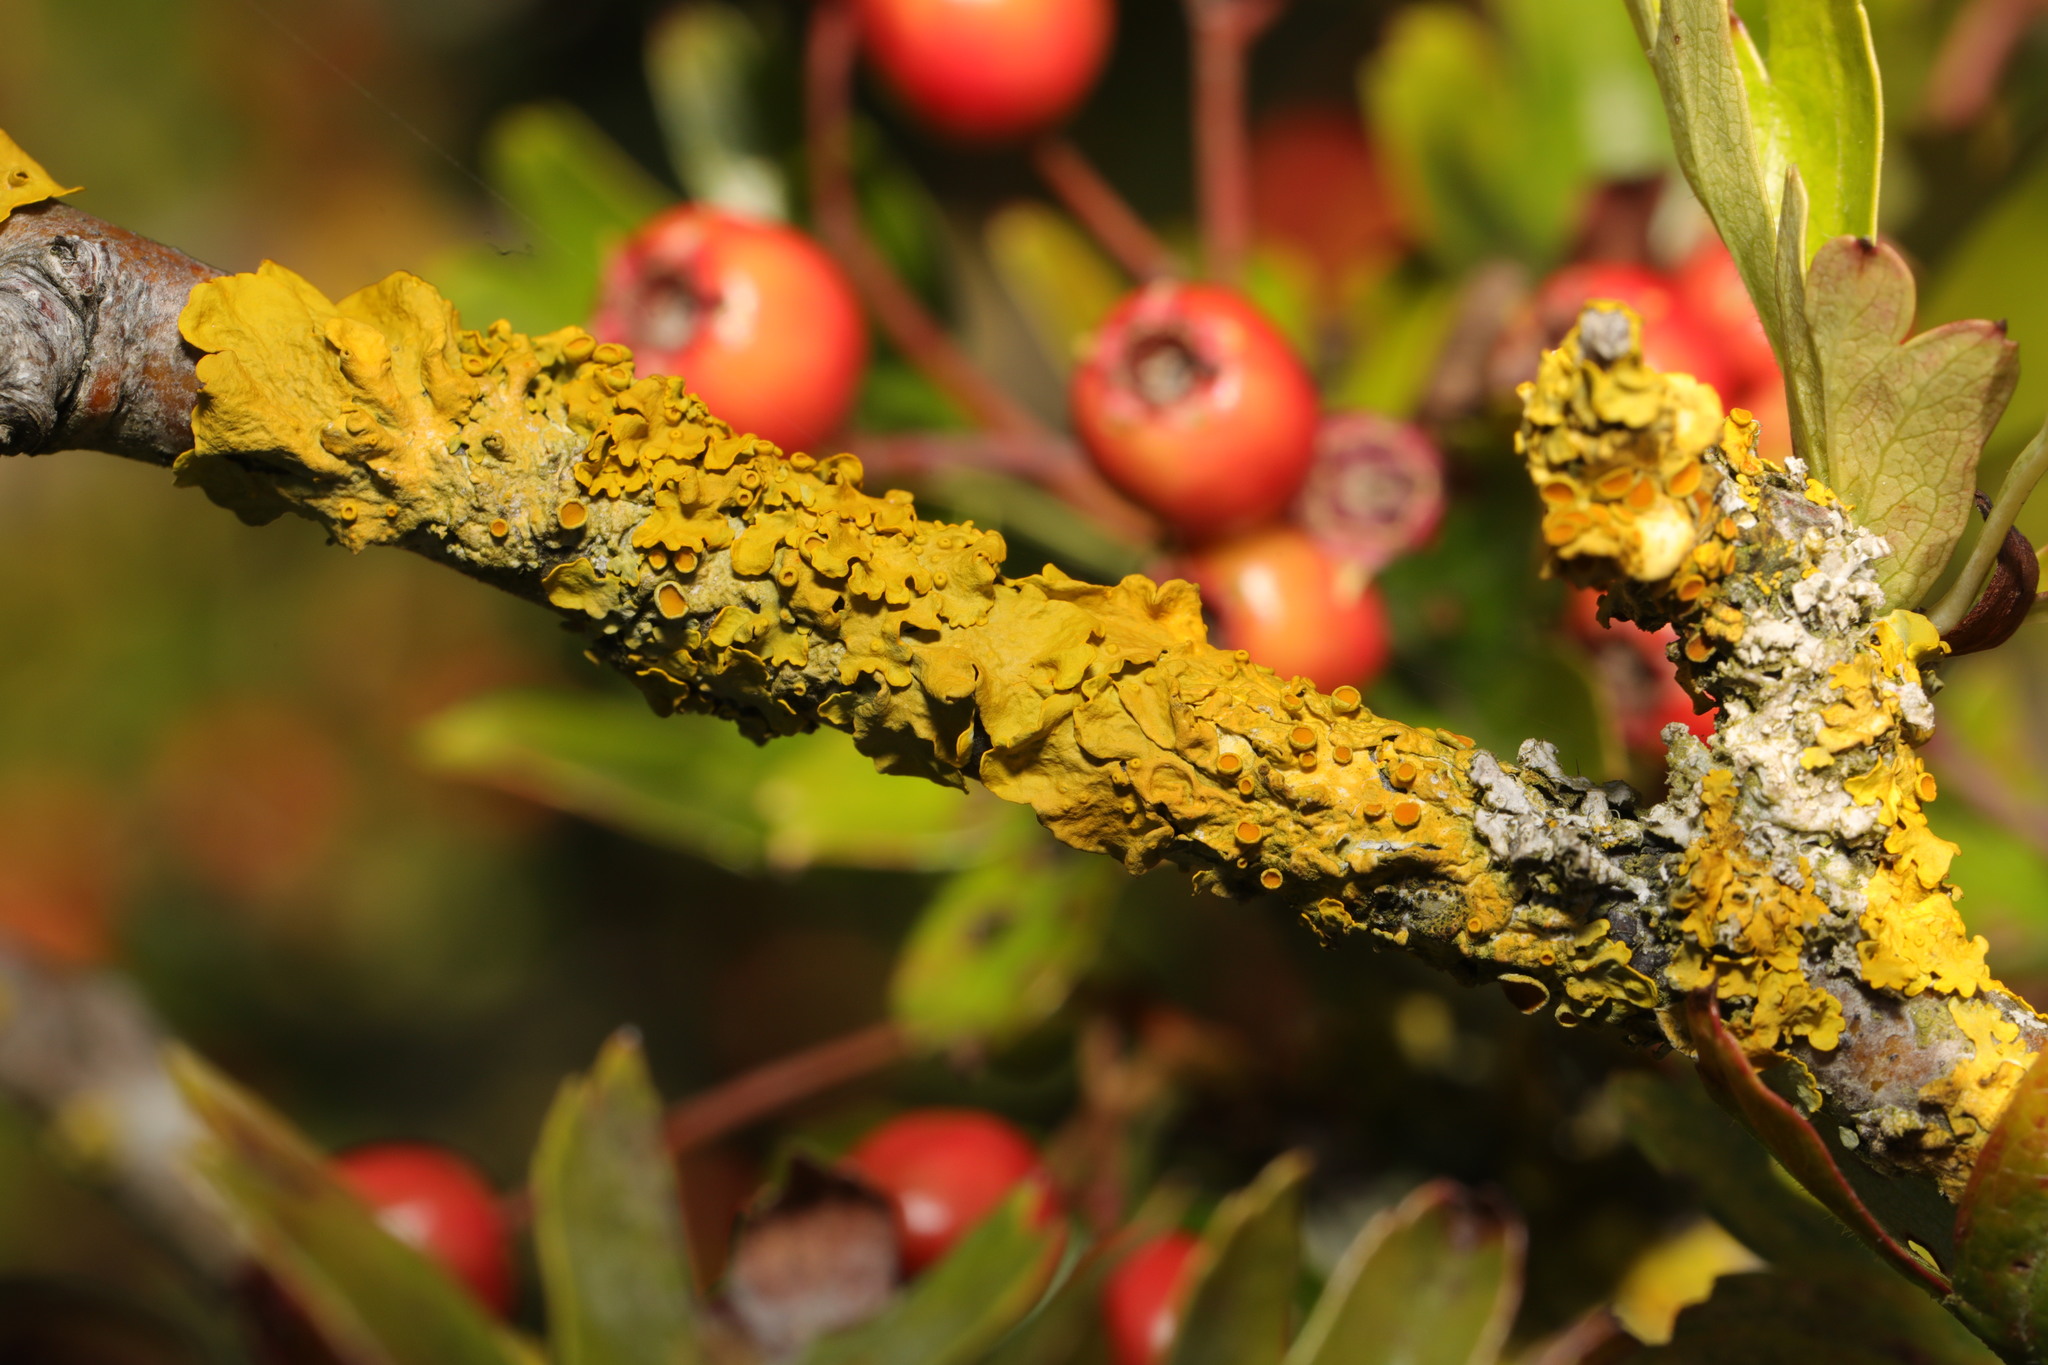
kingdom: Fungi
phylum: Ascomycota
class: Lecanoromycetes
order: Teloschistales
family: Teloschistaceae
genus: Xanthoria
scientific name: Xanthoria parietina
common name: Common orange lichen
